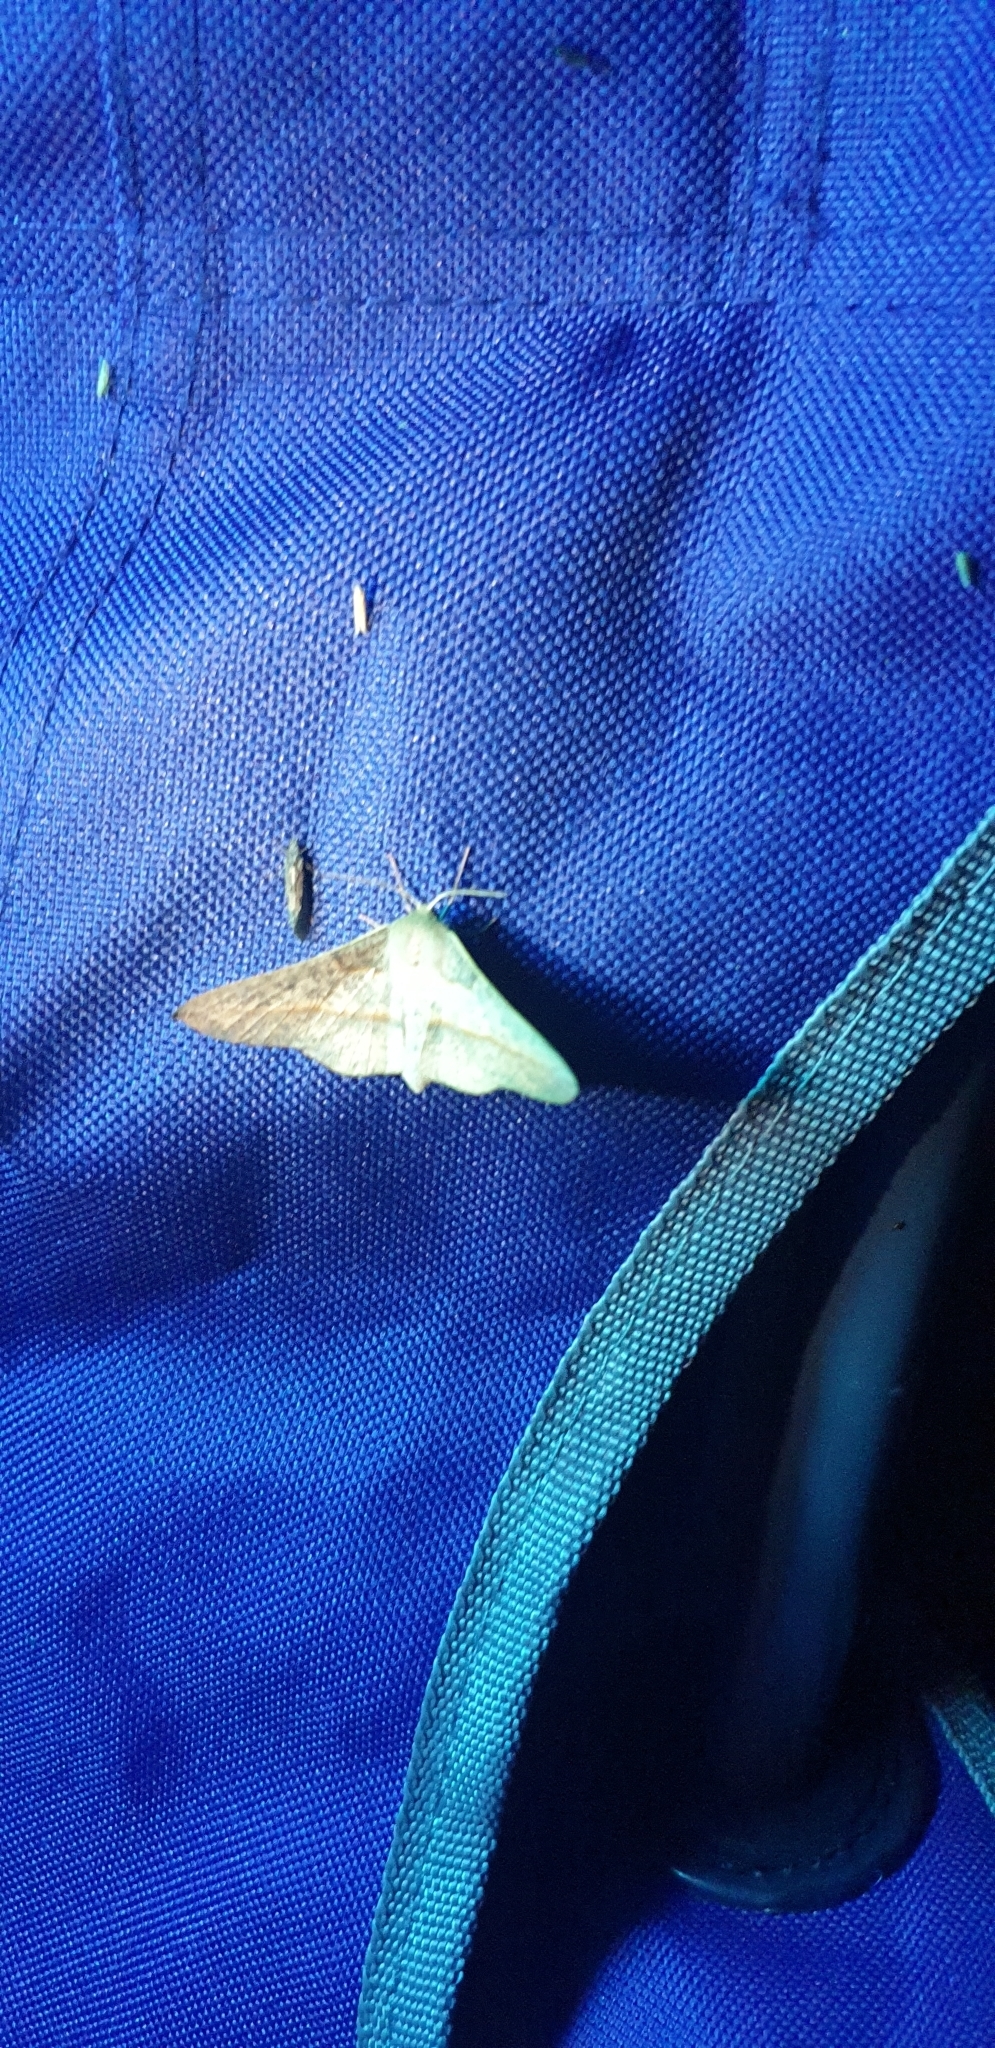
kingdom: Animalia
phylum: Arthropoda
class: Insecta
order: Lepidoptera
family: Geometridae
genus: Antictenia
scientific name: Antictenia punctunculus
